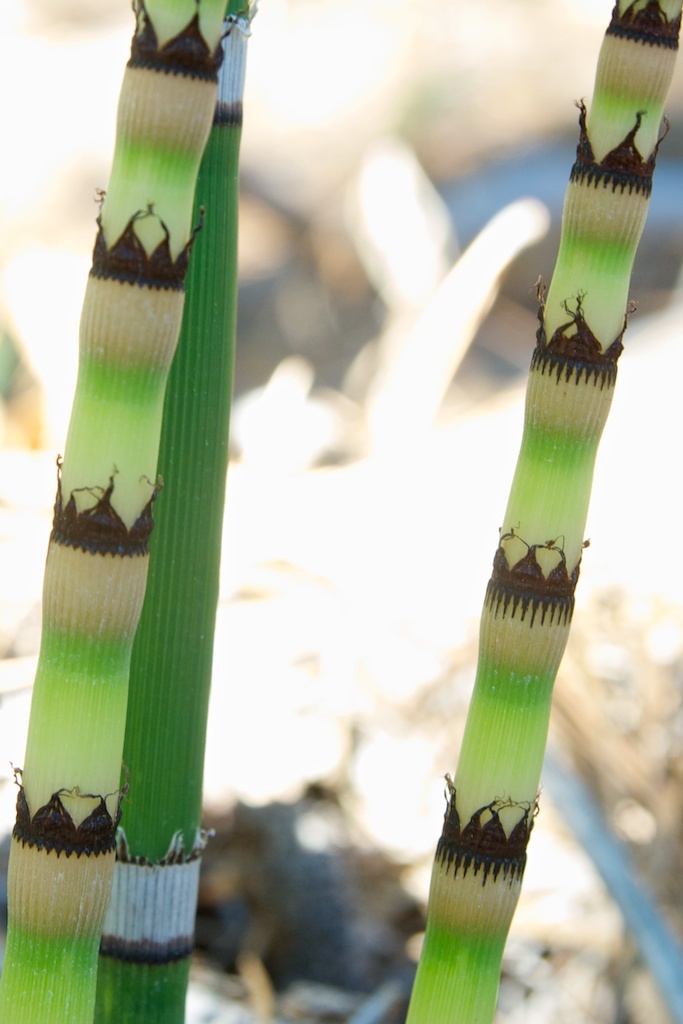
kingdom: Plantae
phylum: Tracheophyta
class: Polypodiopsida
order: Equisetales
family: Equisetaceae
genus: Equisetum
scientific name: Equisetum praealtum
